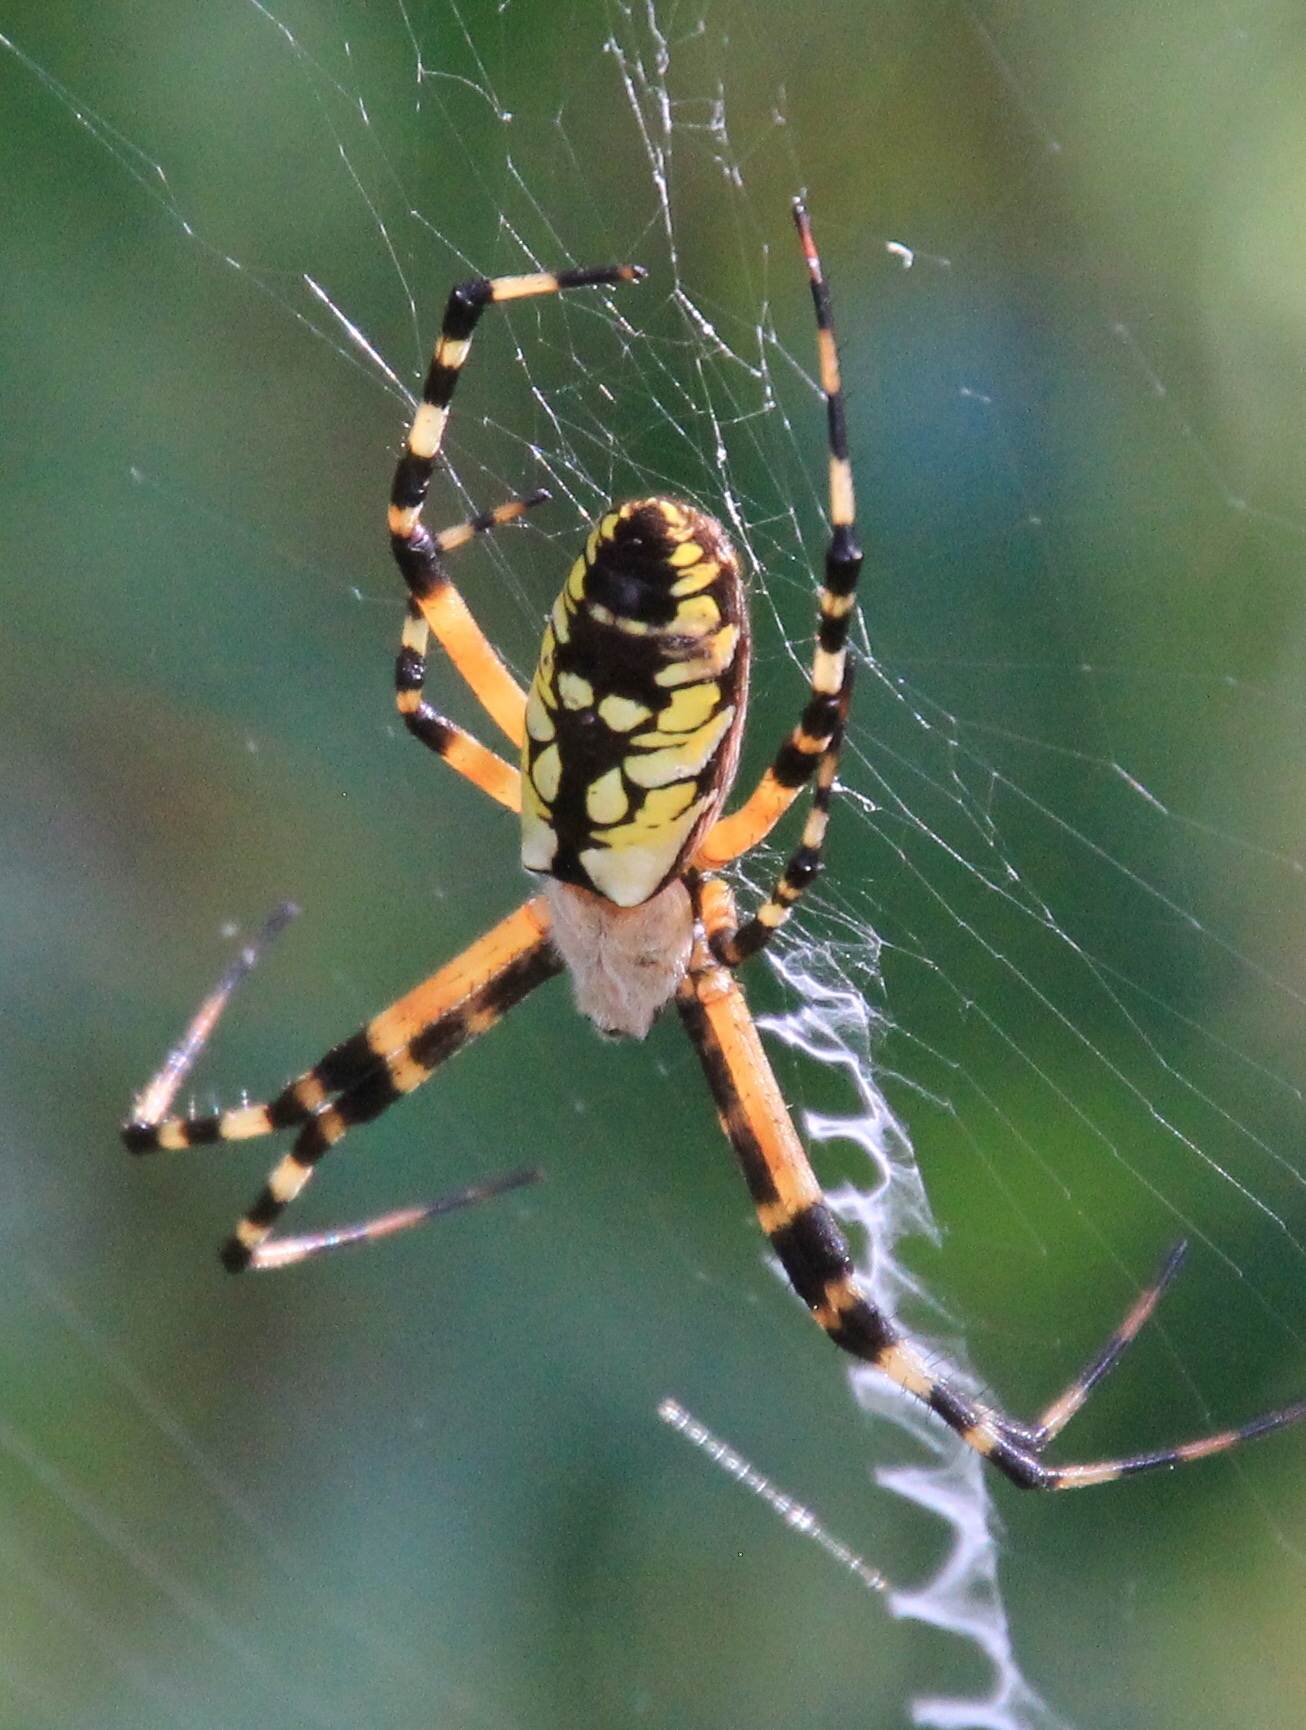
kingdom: Animalia
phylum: Arthropoda
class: Arachnida
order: Araneae
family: Araneidae
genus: Argiope
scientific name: Argiope aurantia
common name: Orb weavers
